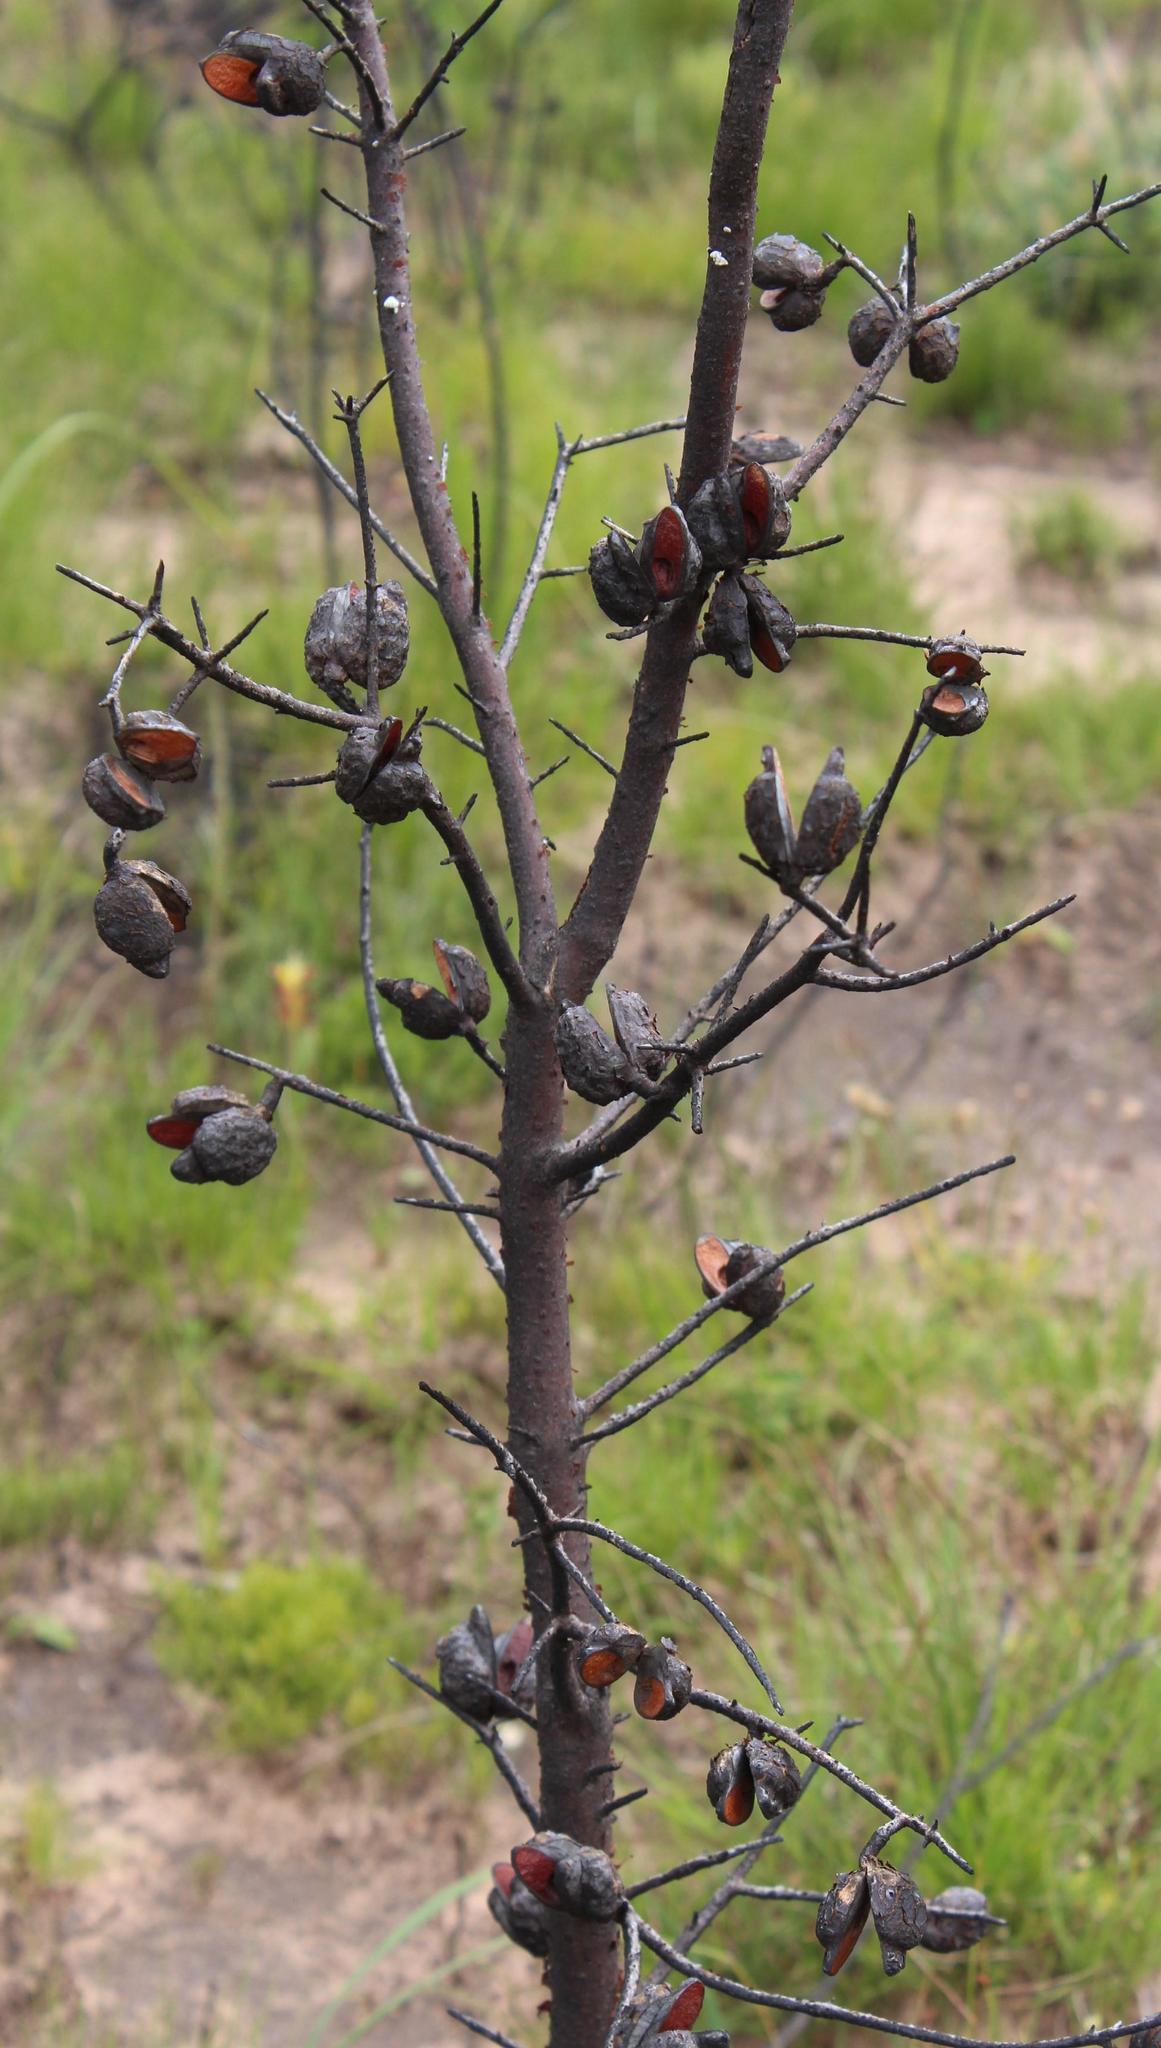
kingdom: Plantae
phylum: Tracheophyta
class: Magnoliopsida
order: Proteales
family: Proteaceae
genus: Hakea
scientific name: Hakea sericea
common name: Needle bush
